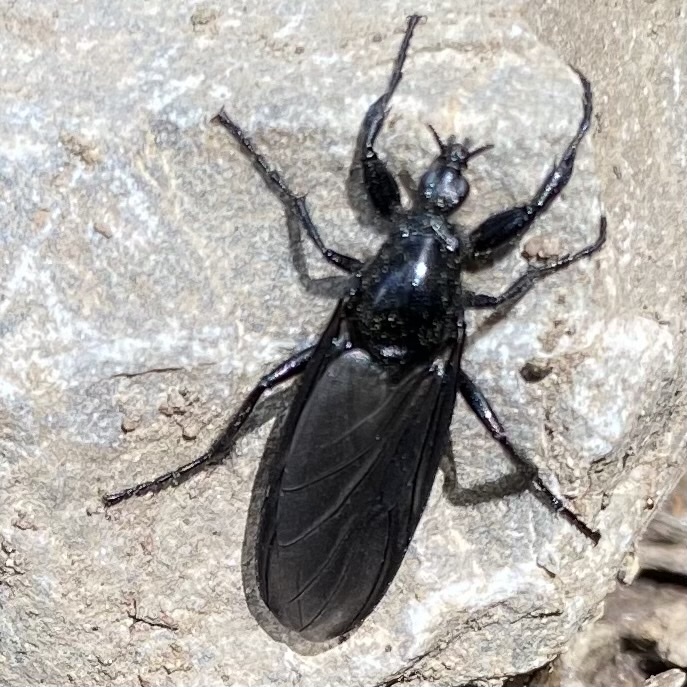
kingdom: Animalia
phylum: Arthropoda
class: Insecta
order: Diptera
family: Bibionidae
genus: Bibio
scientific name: Bibio marci
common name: St marks fly
